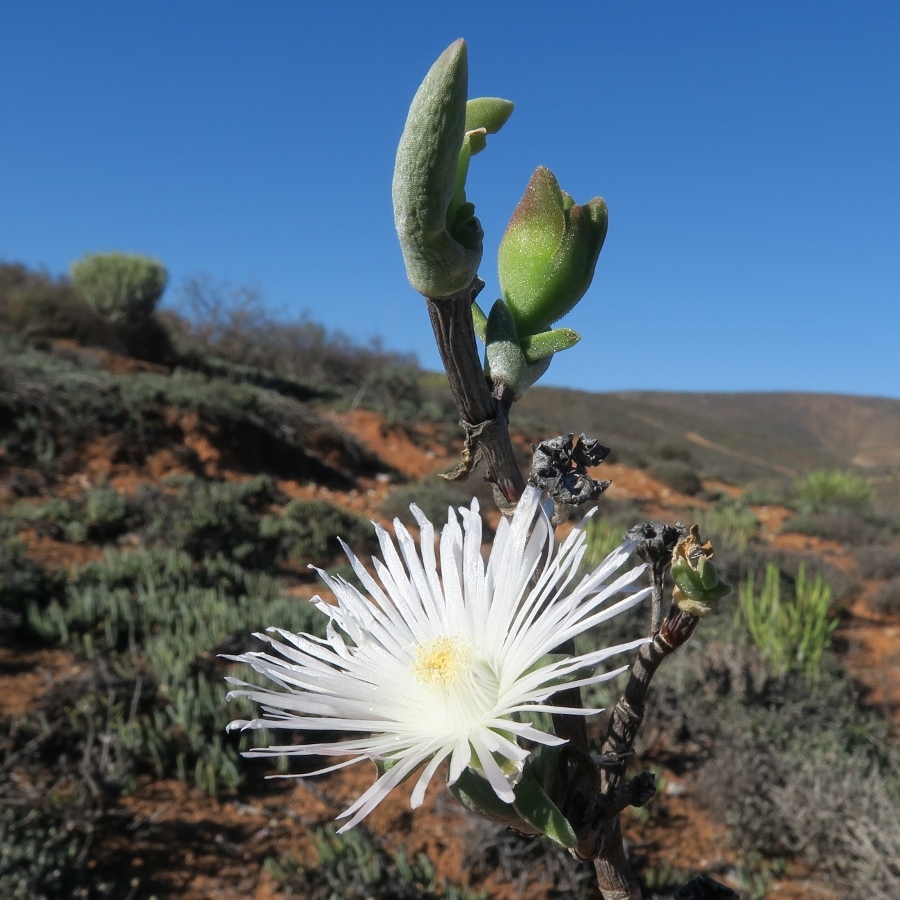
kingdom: Plantae
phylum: Tracheophyta
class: Magnoliopsida
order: Caryophyllales
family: Aizoaceae
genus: Mitrophyllum
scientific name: Mitrophyllum clivorum
